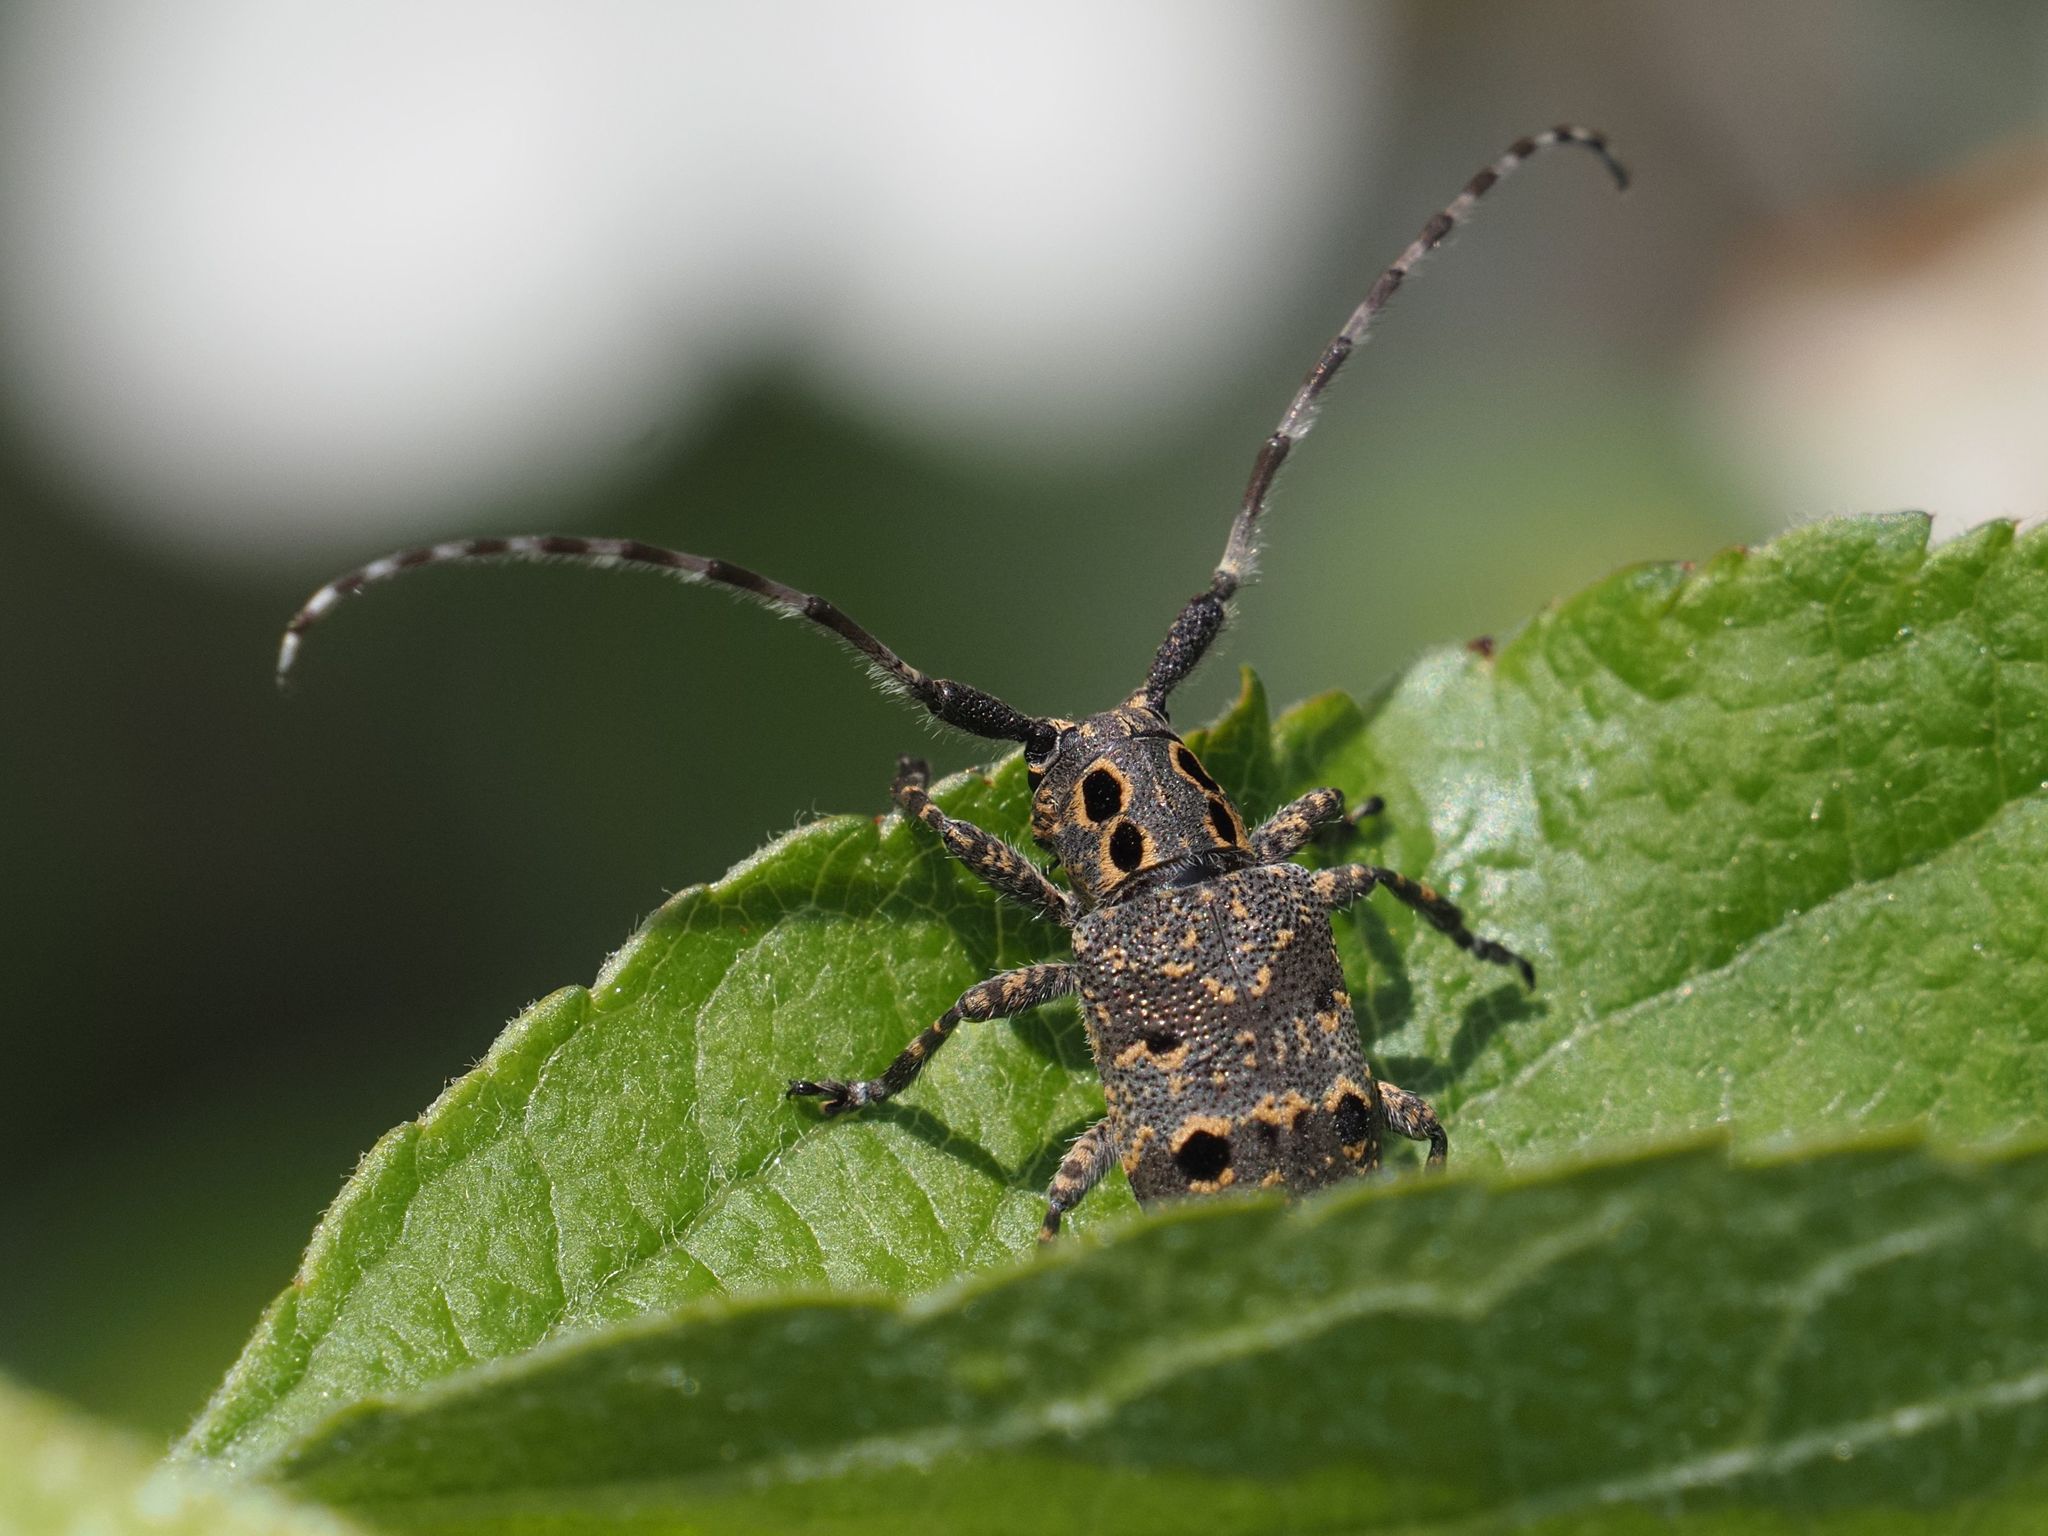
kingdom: Animalia
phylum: Arthropoda
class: Insecta
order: Coleoptera
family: Cerambycidae
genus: Mesosa
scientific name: Mesosa curculionoides
